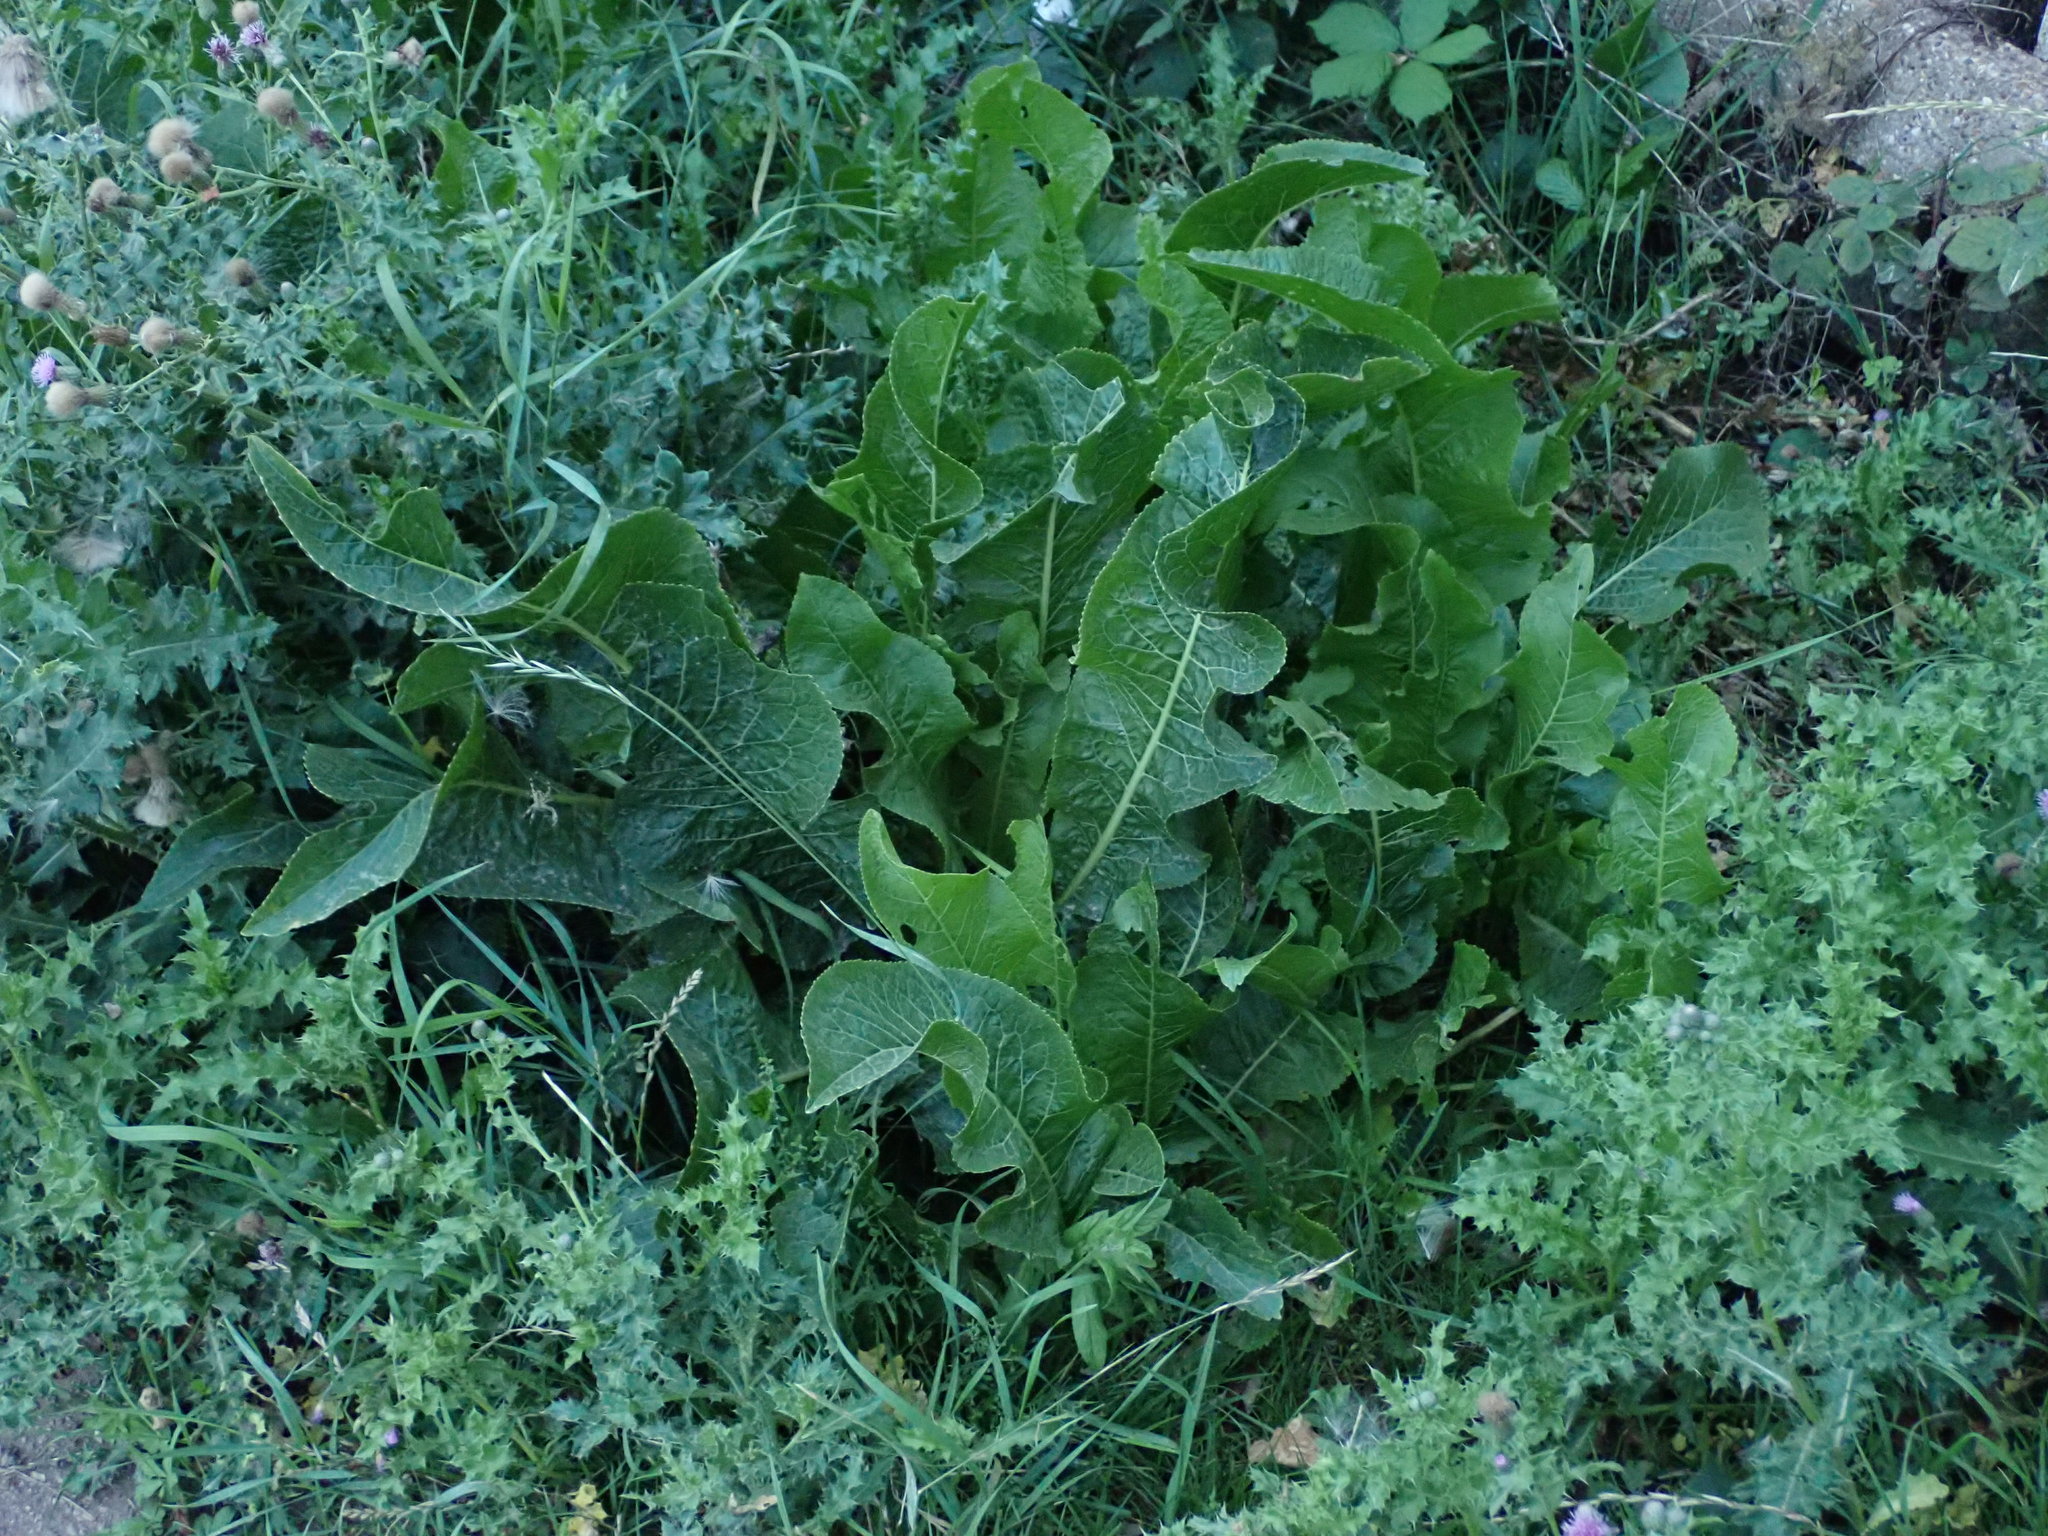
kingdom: Plantae
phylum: Tracheophyta
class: Magnoliopsida
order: Brassicales
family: Brassicaceae
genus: Armoracia
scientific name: Armoracia rusticana
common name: Horseradish
